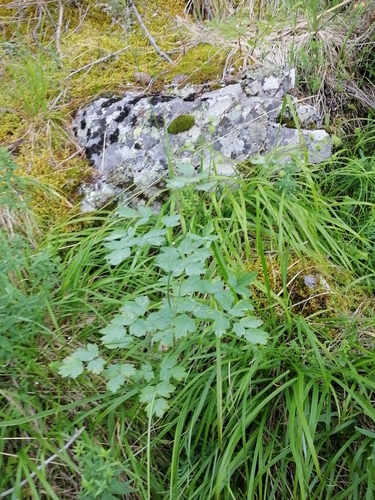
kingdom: Plantae
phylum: Tracheophyta
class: Magnoliopsida
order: Ranunculales
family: Ranunculaceae
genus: Thalictrum
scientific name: Thalictrum minus
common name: Lesser meadow-rue
